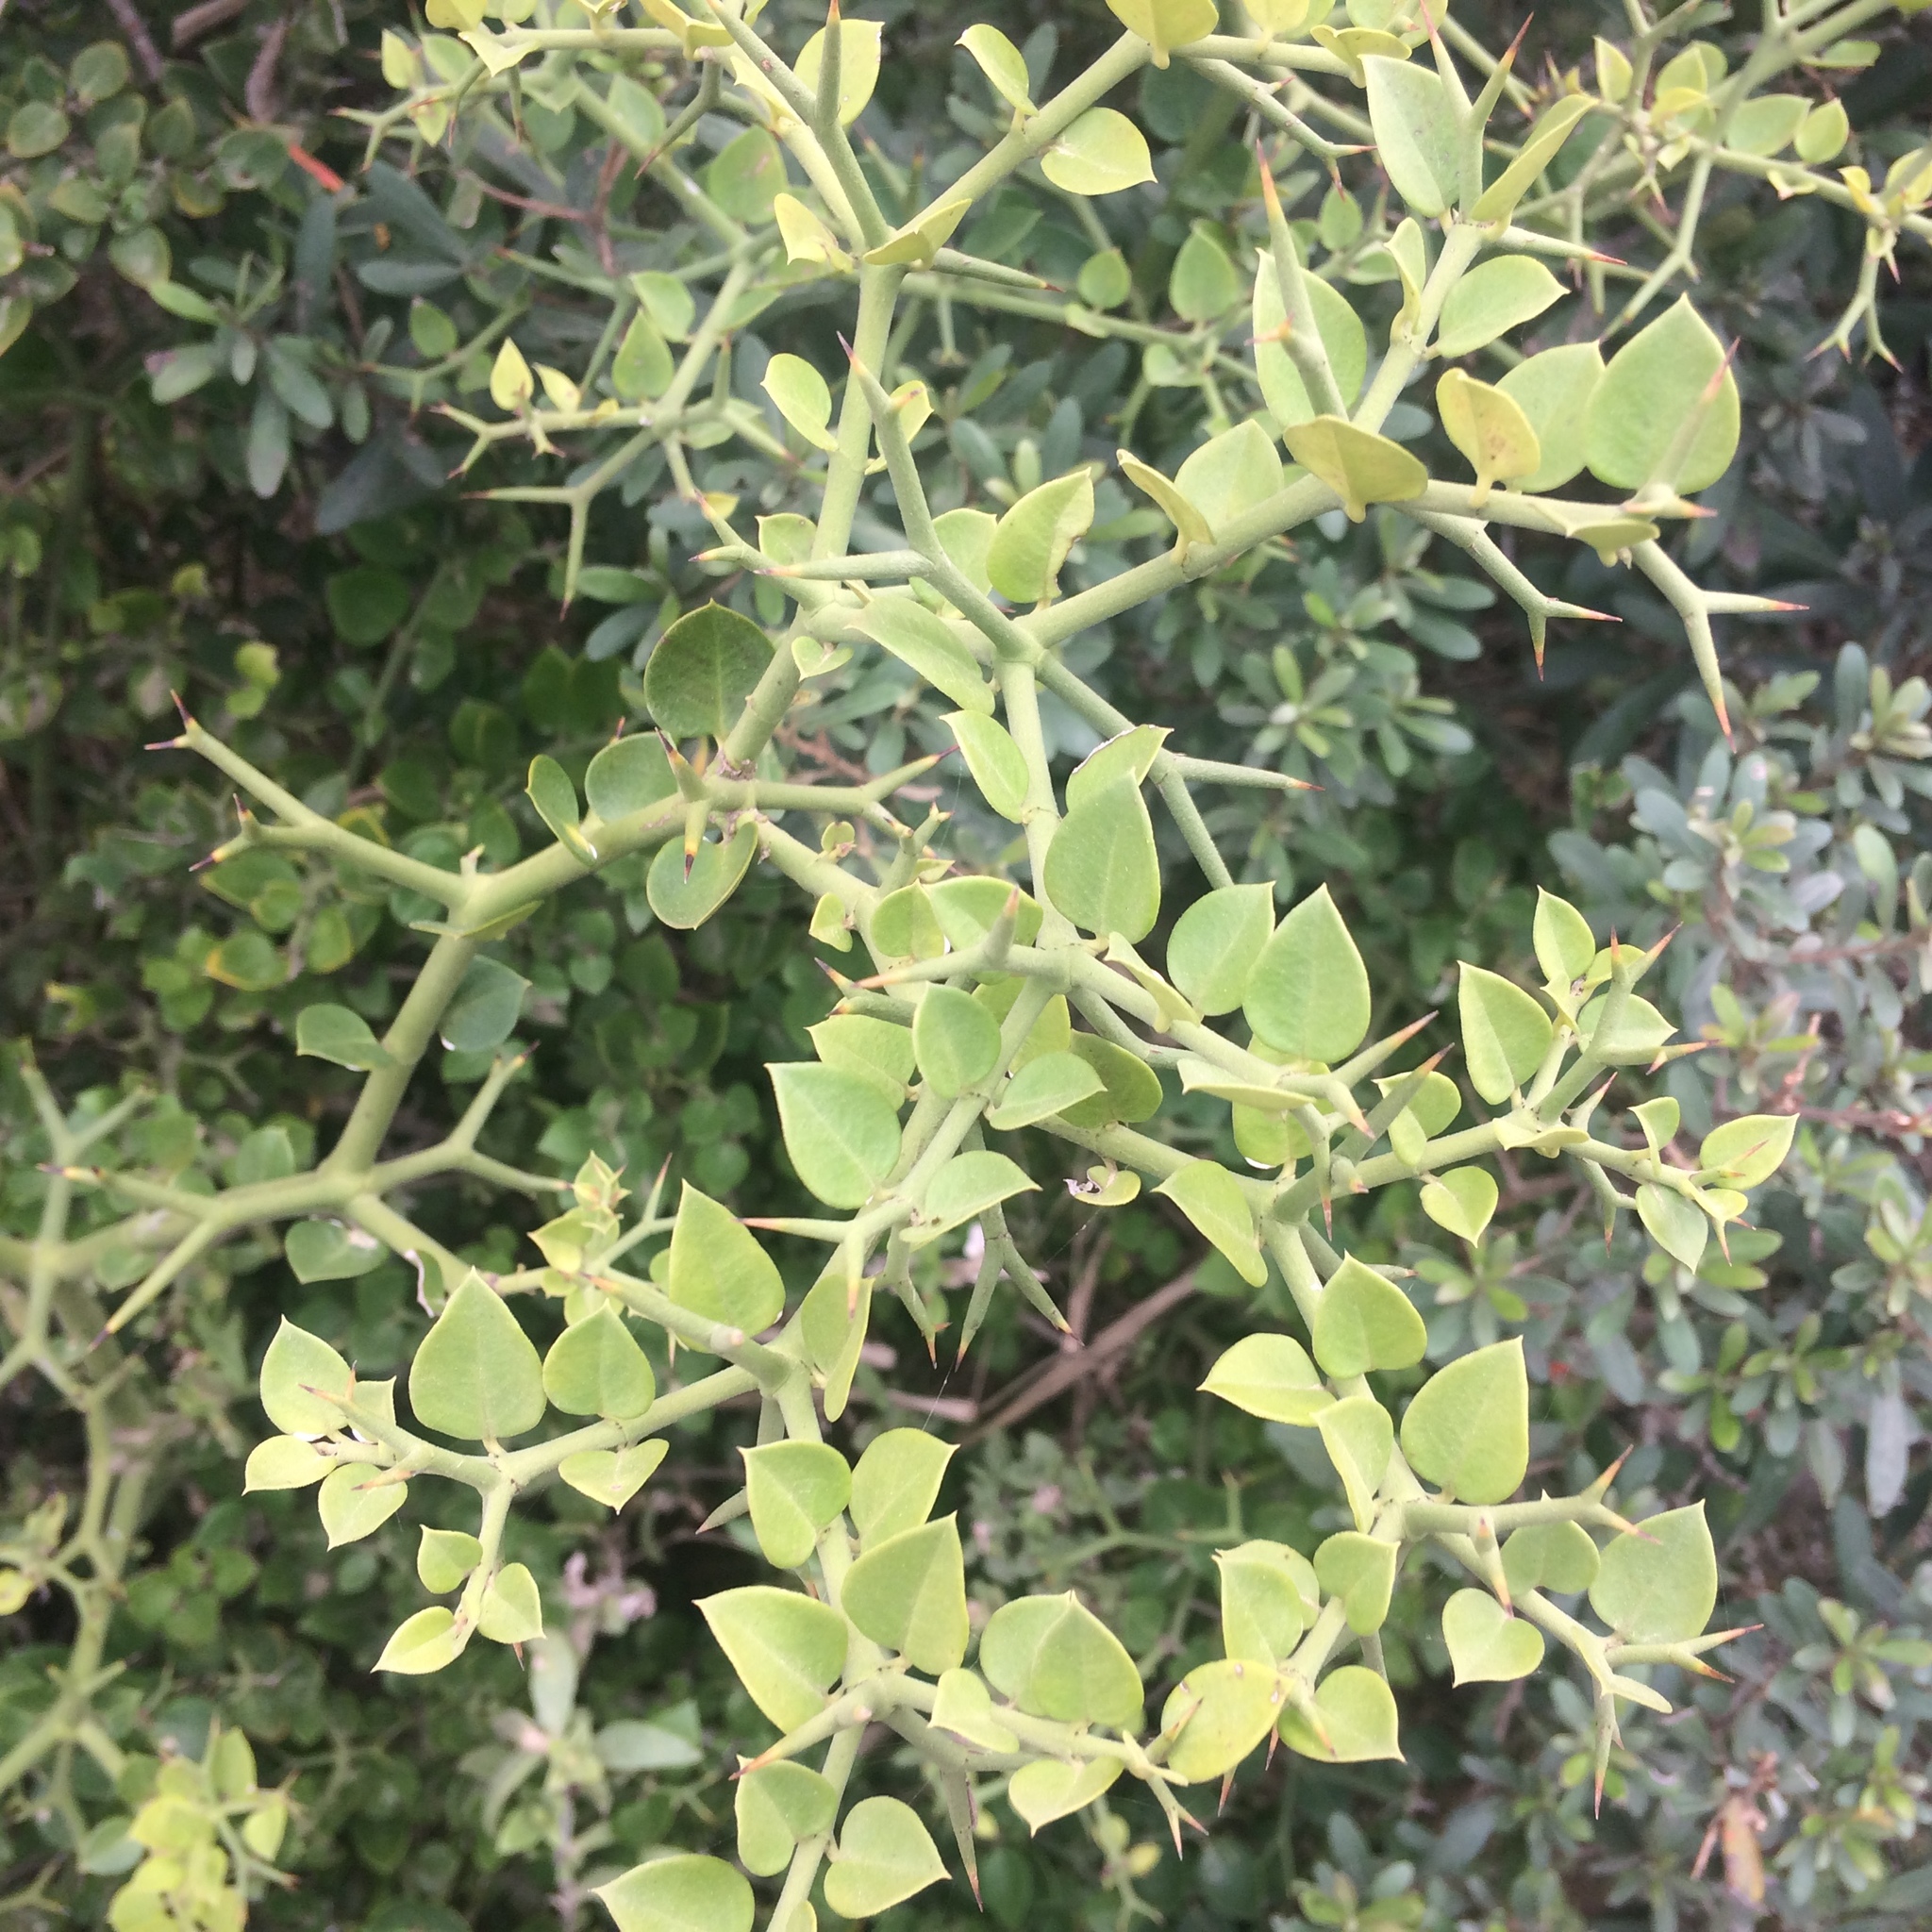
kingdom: Plantae
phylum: Tracheophyta
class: Magnoliopsida
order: Gentianales
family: Apocynaceae
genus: Carissa
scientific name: Carissa bispinosa
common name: Forest num-num
